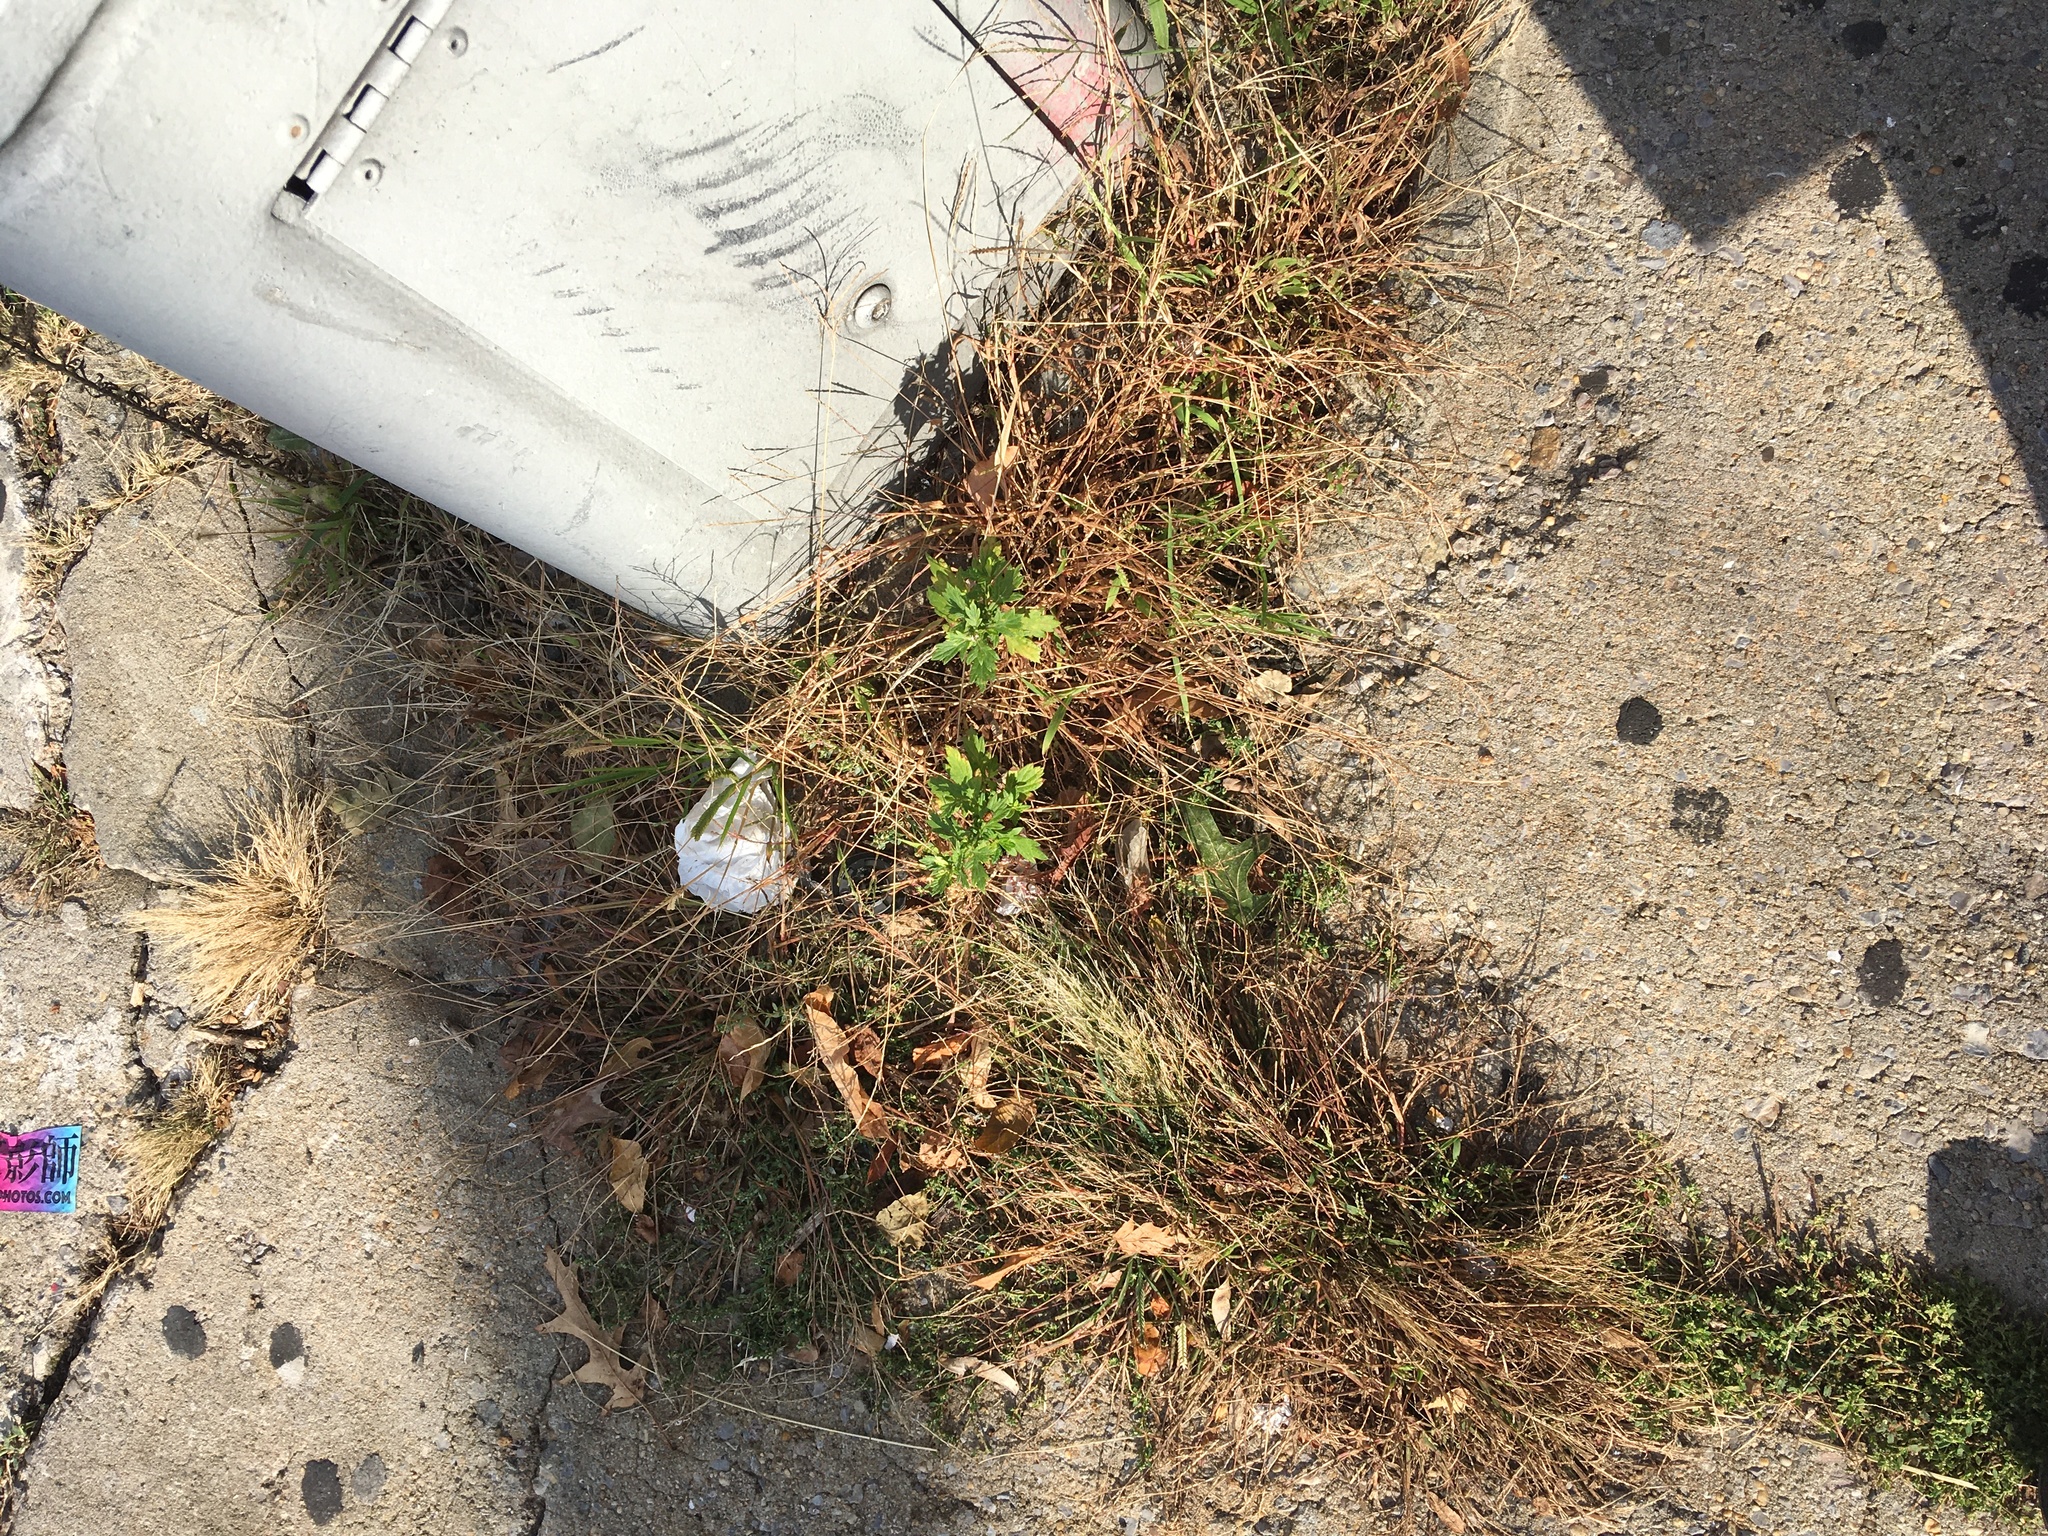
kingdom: Plantae
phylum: Tracheophyta
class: Magnoliopsida
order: Asterales
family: Asteraceae
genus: Artemisia
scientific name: Artemisia vulgaris
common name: Mugwort
